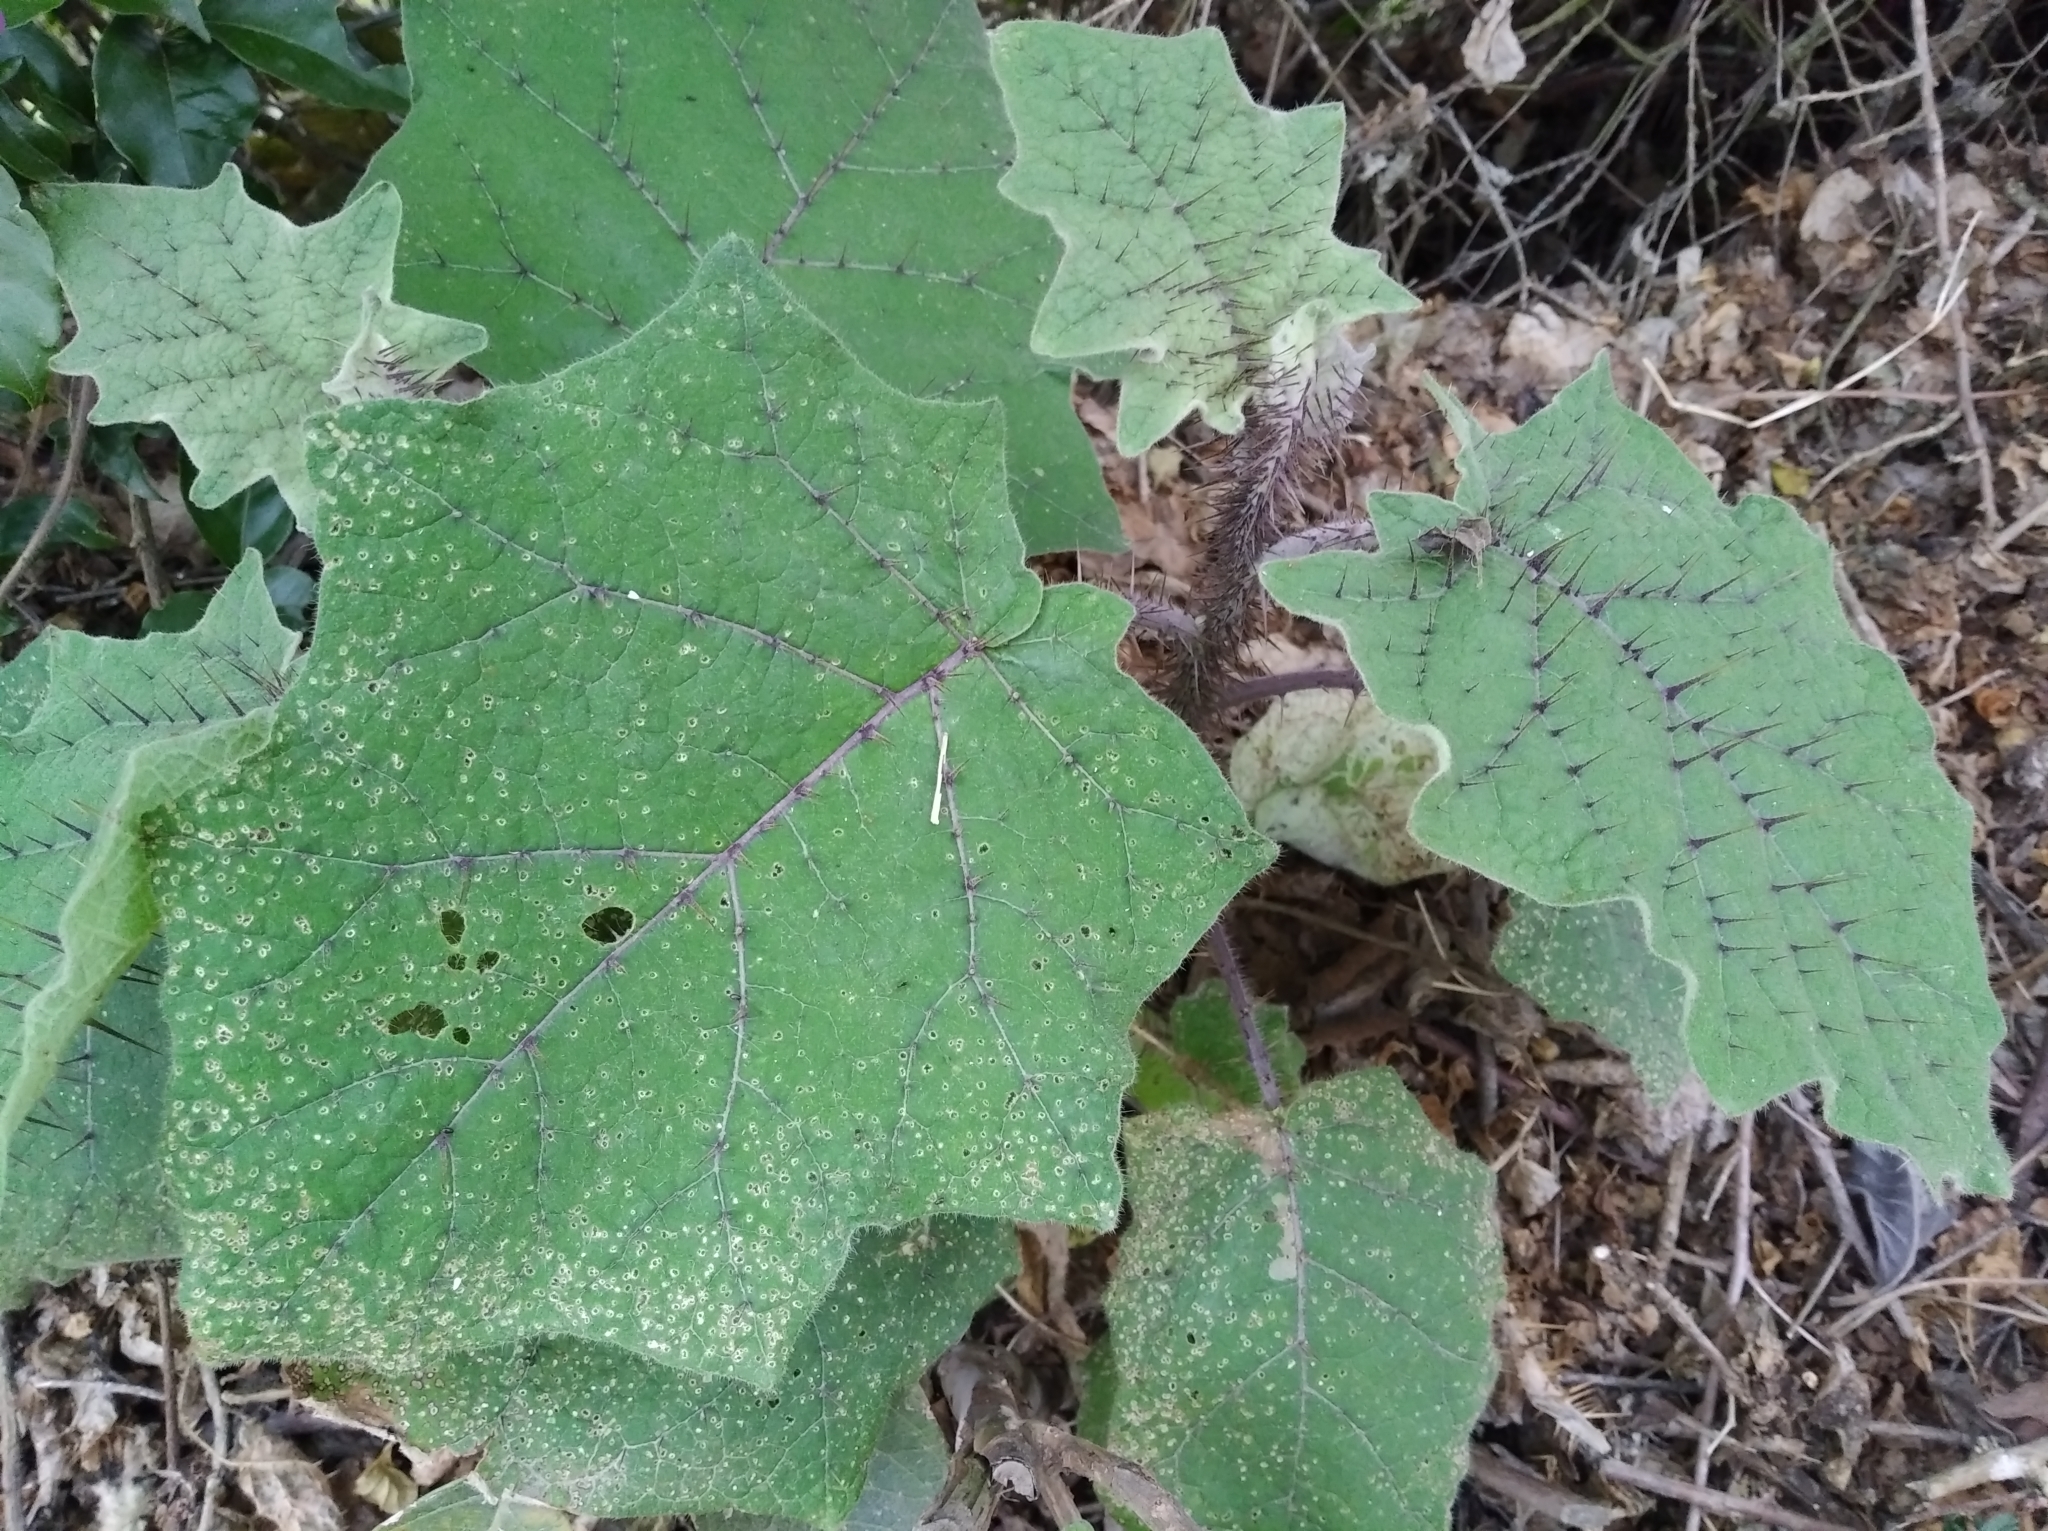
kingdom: Plantae
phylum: Tracheophyta
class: Magnoliopsida
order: Solanales
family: Solanaceae
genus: Solanum
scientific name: Solanum quitoense
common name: Quito-orange
